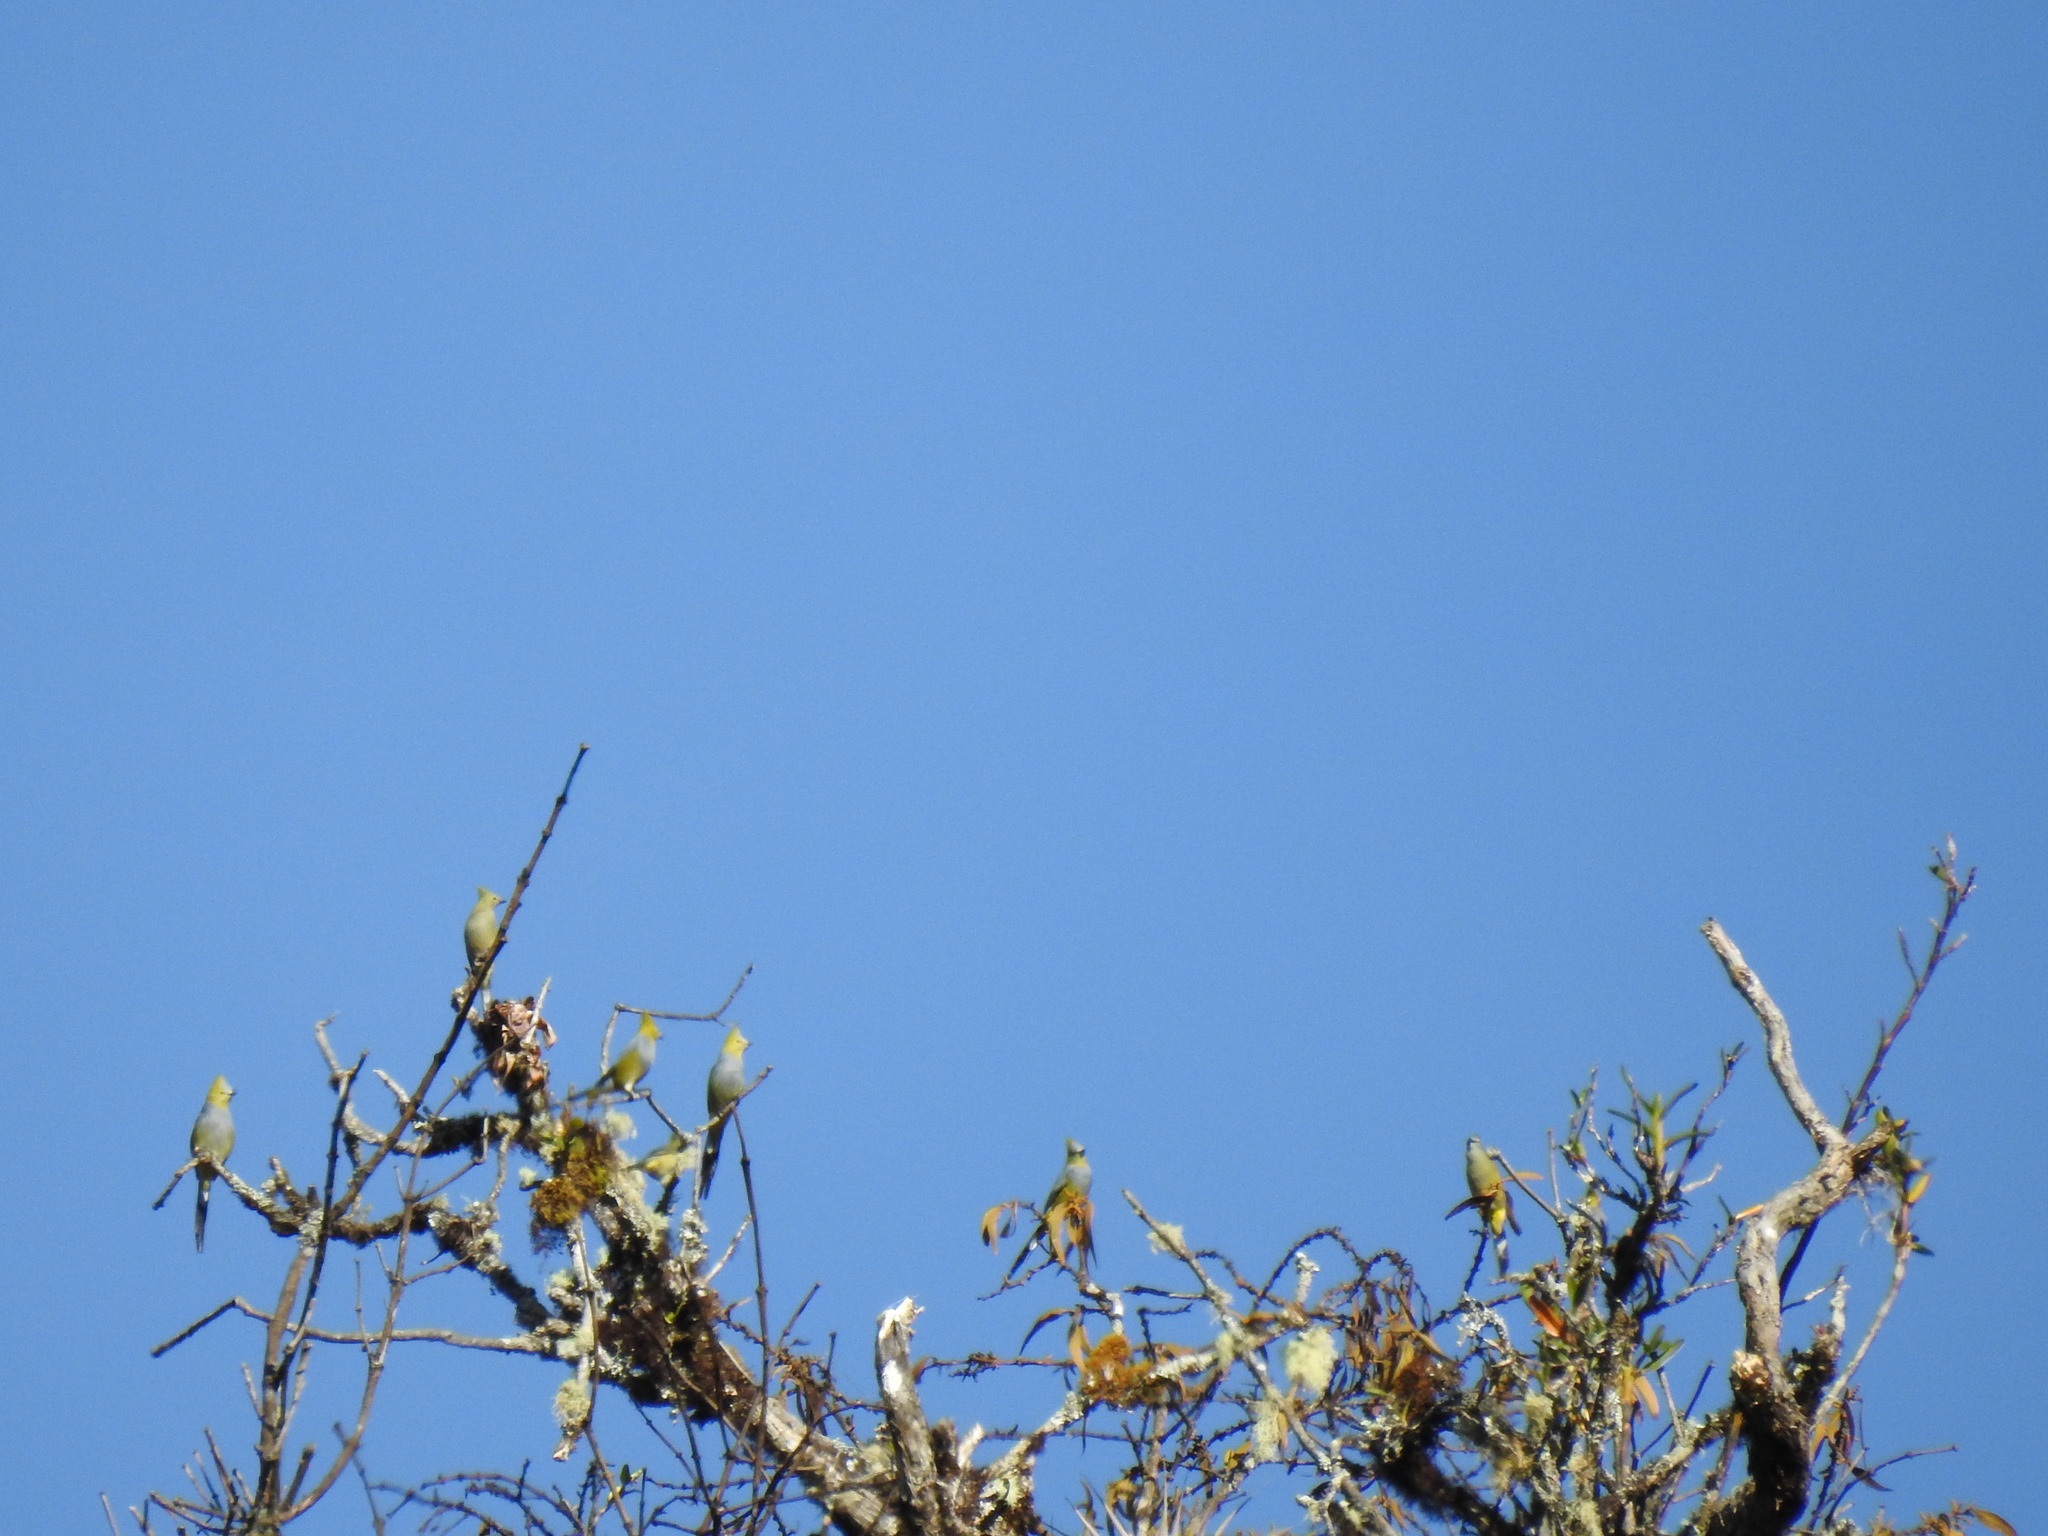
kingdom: Animalia
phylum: Chordata
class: Aves
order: Passeriformes
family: Ptilogonatidae
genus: Ptilogonys
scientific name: Ptilogonys caudatus
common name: Long-tailed silky-flycatcher
